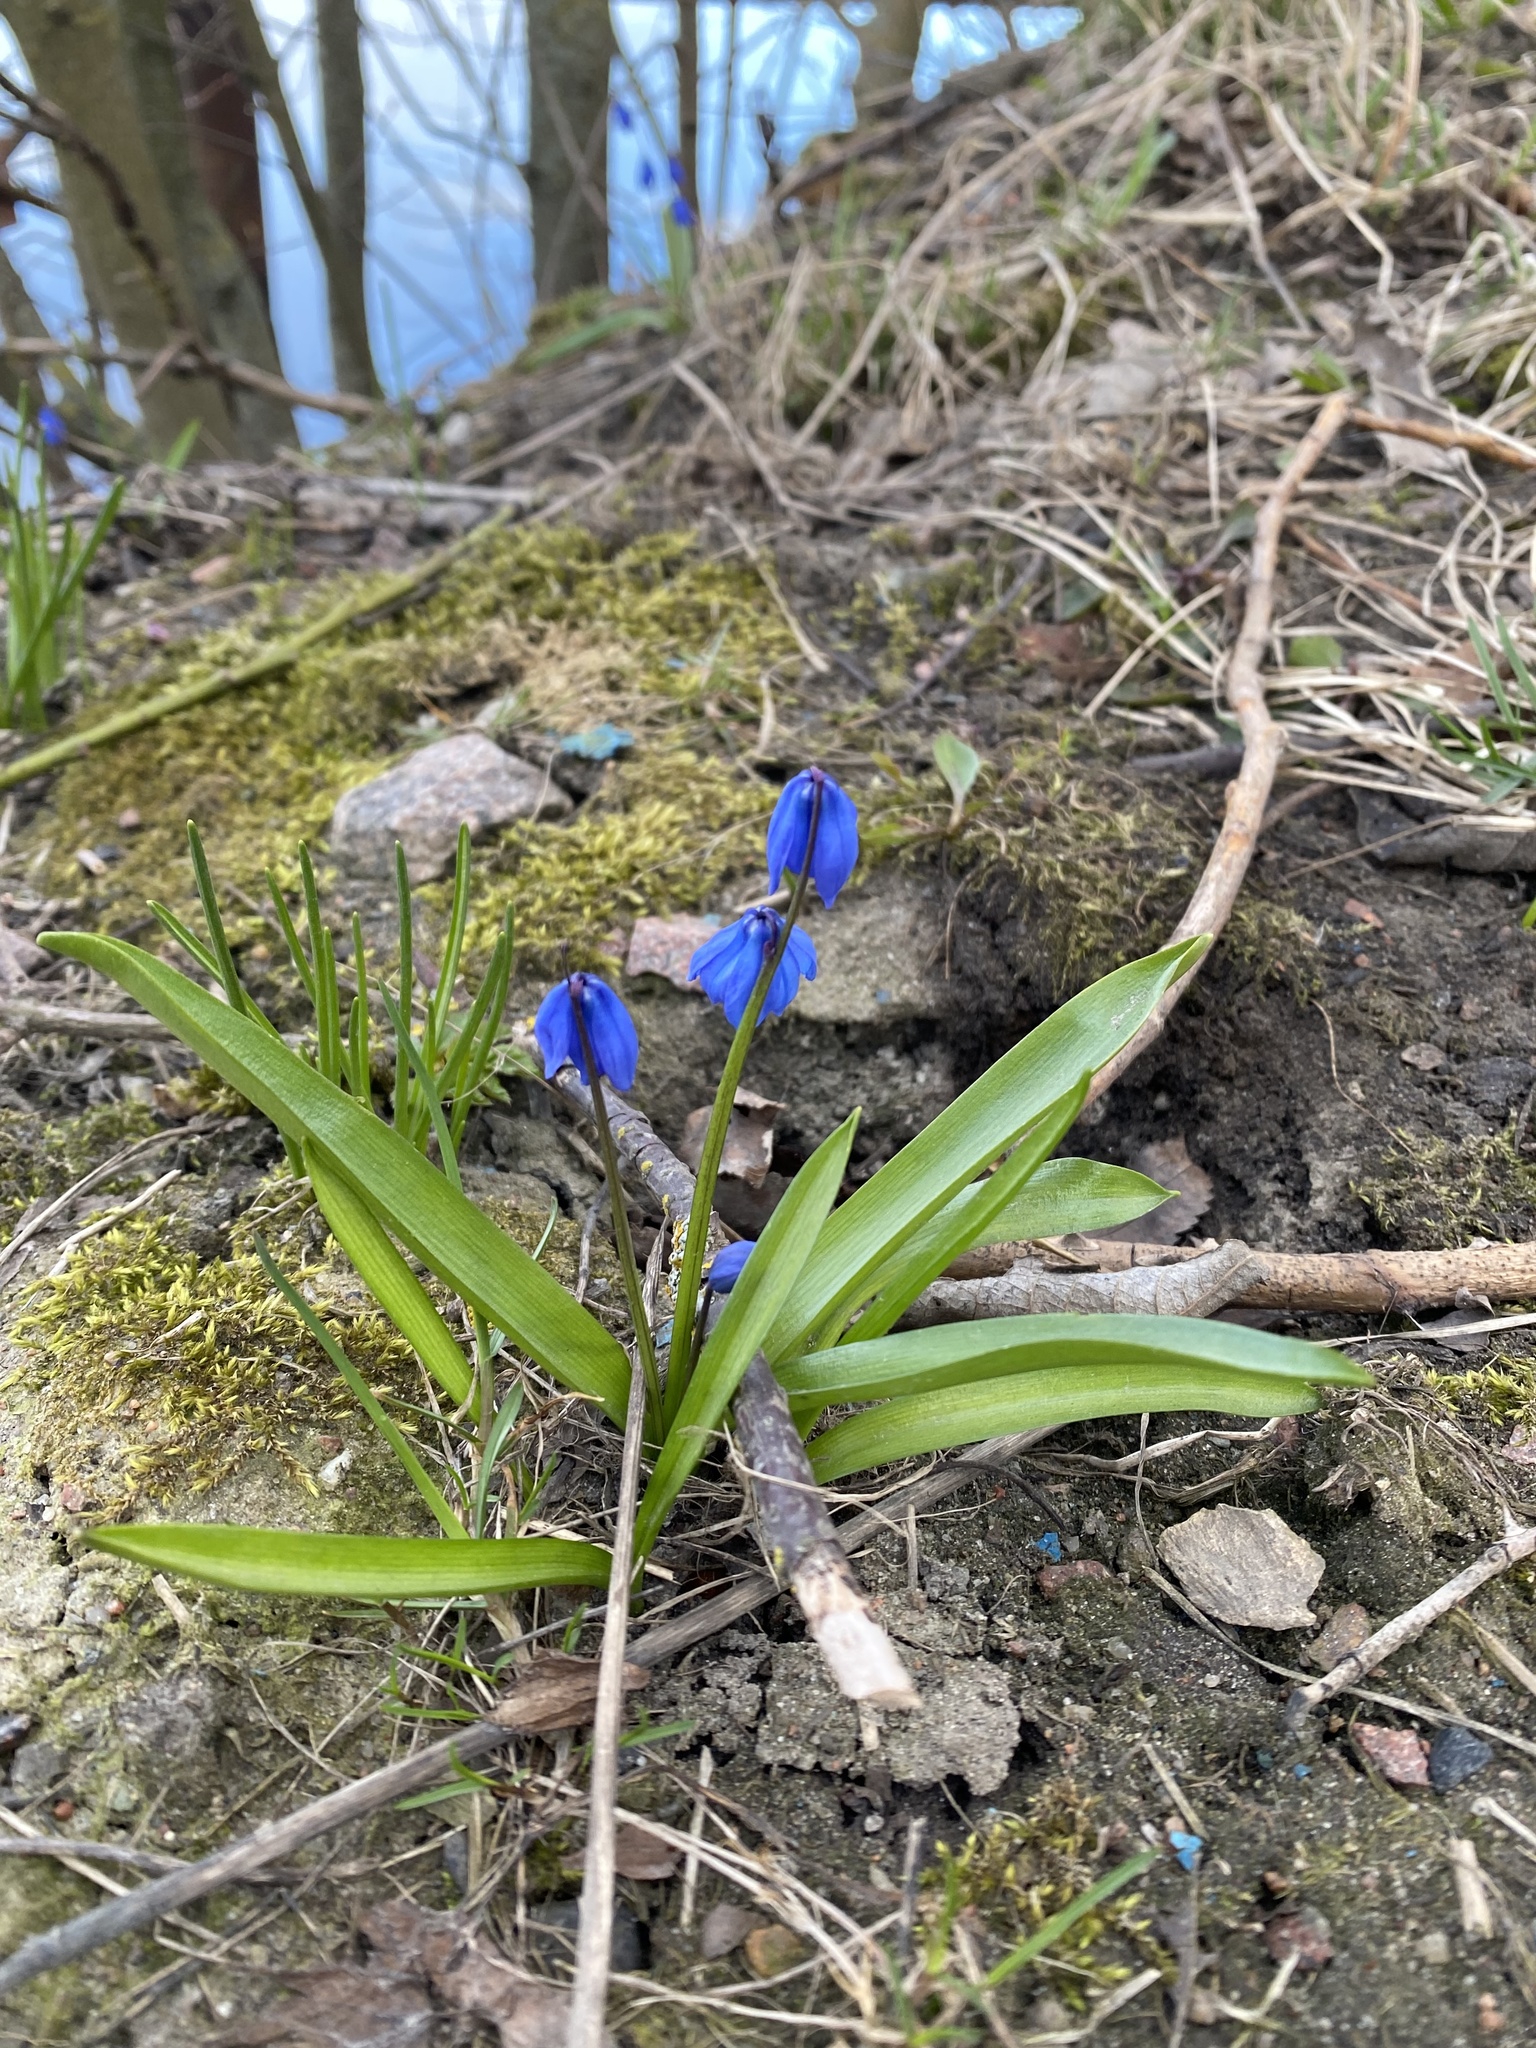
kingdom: Plantae
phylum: Tracheophyta
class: Liliopsida
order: Asparagales
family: Asparagaceae
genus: Scilla
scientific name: Scilla siberica
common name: Siberian squill
